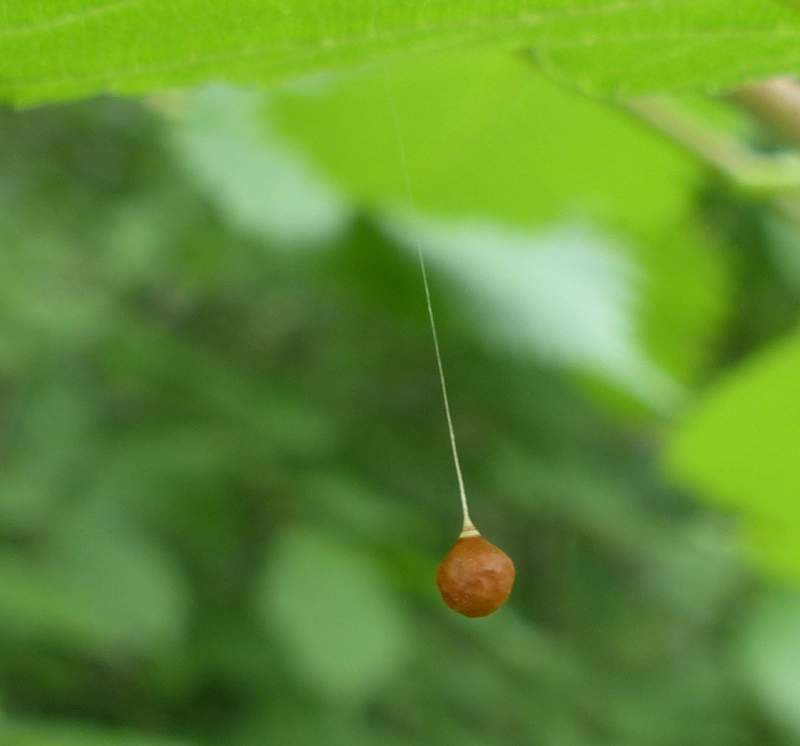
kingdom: Animalia
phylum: Arthropoda
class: Arachnida
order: Araneae
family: Theridiosomatidae
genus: Theridiosoma
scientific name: Theridiosoma gemmosum
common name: Ray spider
